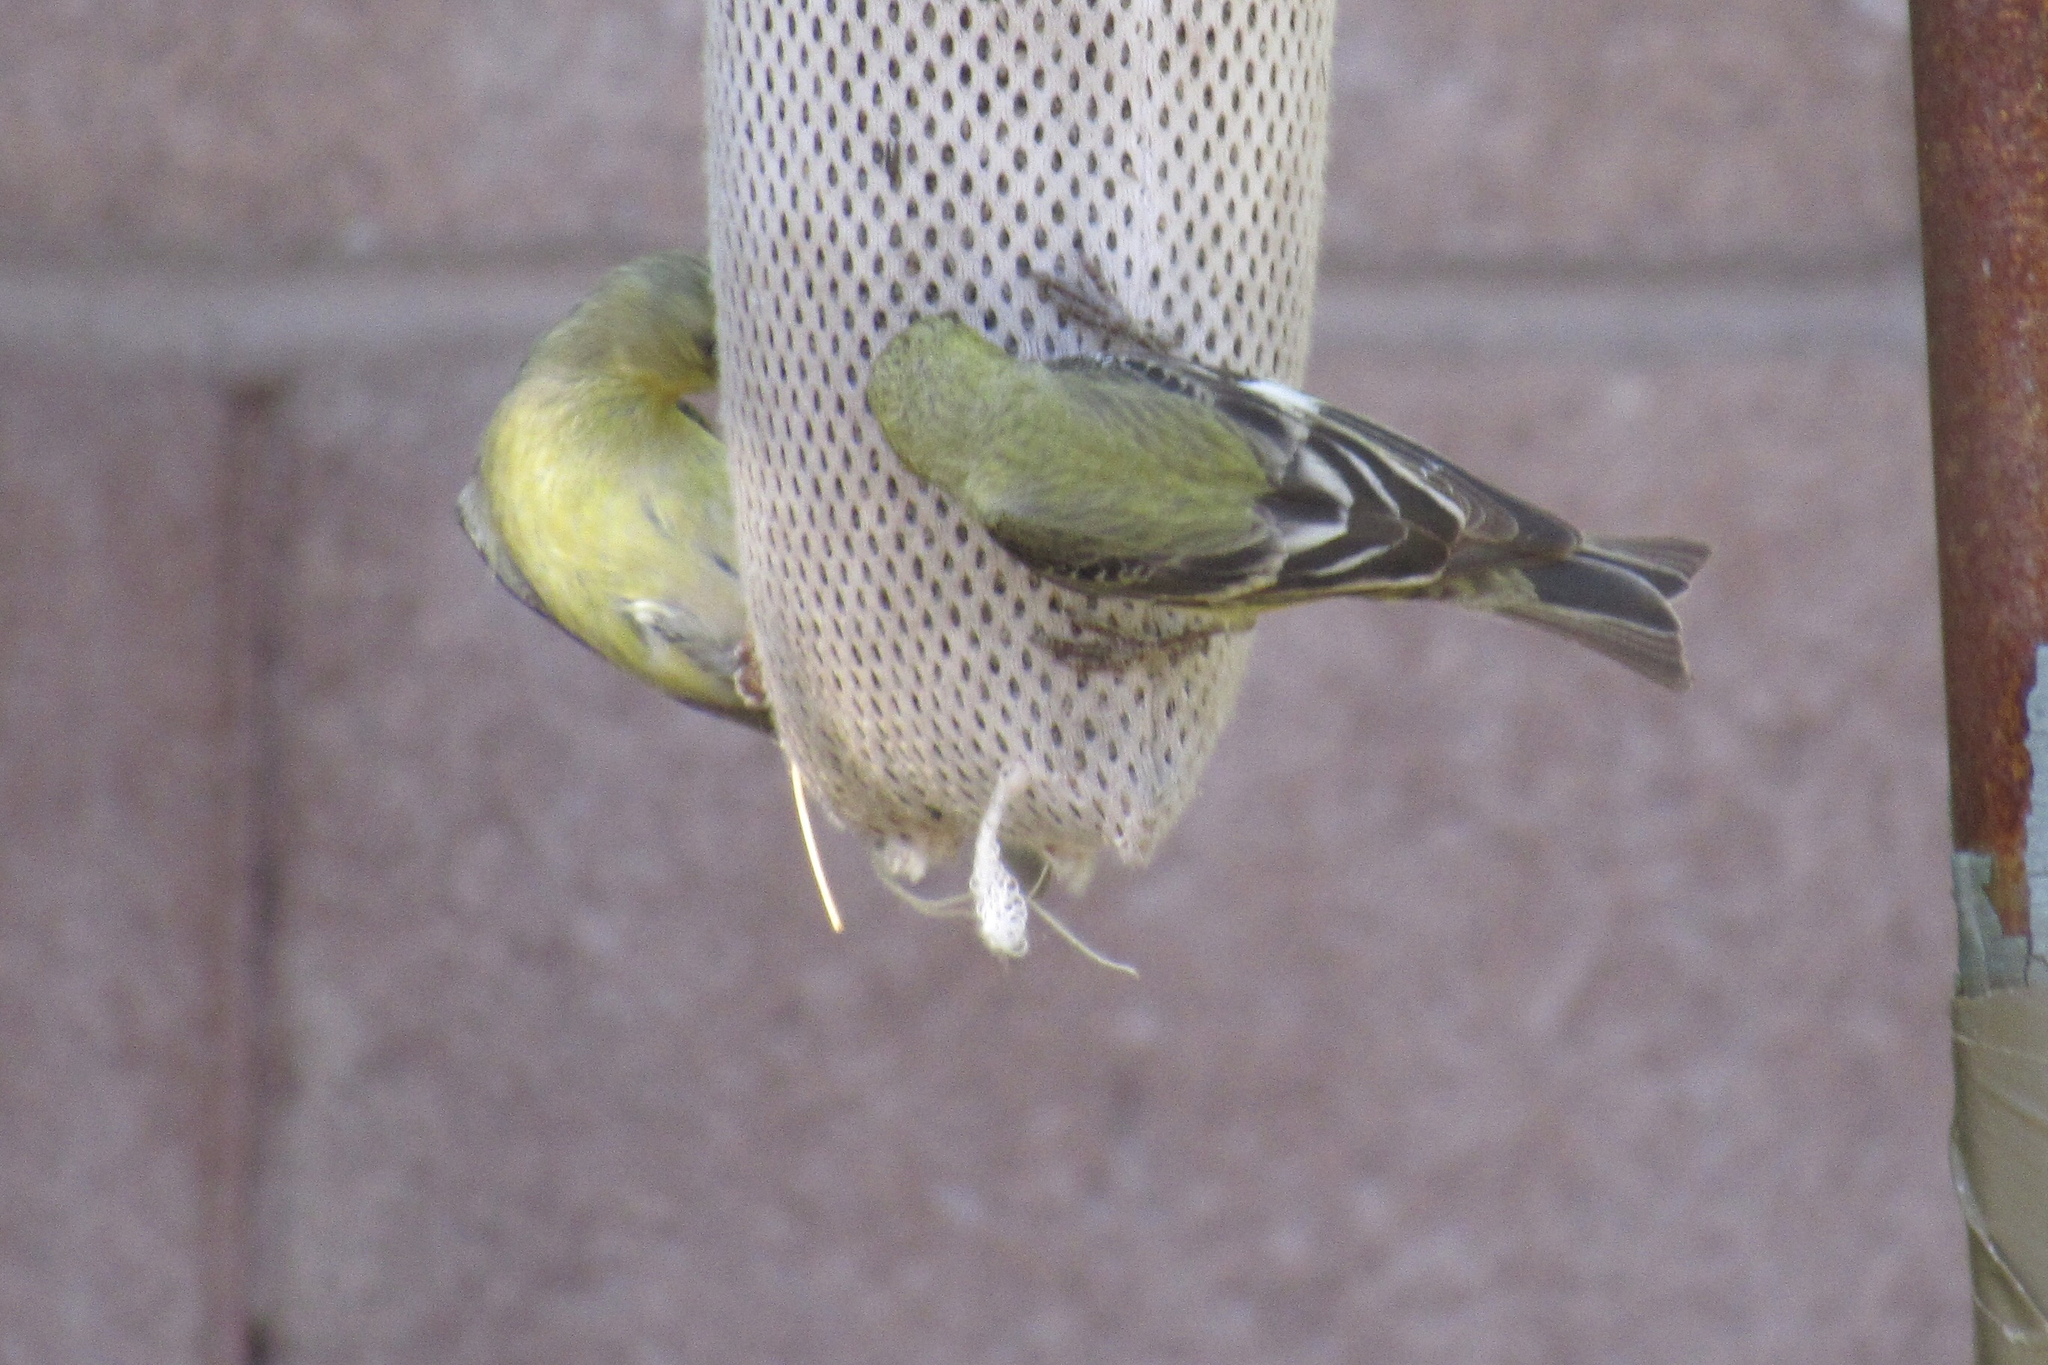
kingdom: Animalia
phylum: Chordata
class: Aves
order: Passeriformes
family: Fringillidae
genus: Spinus
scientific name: Spinus psaltria
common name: Lesser goldfinch
